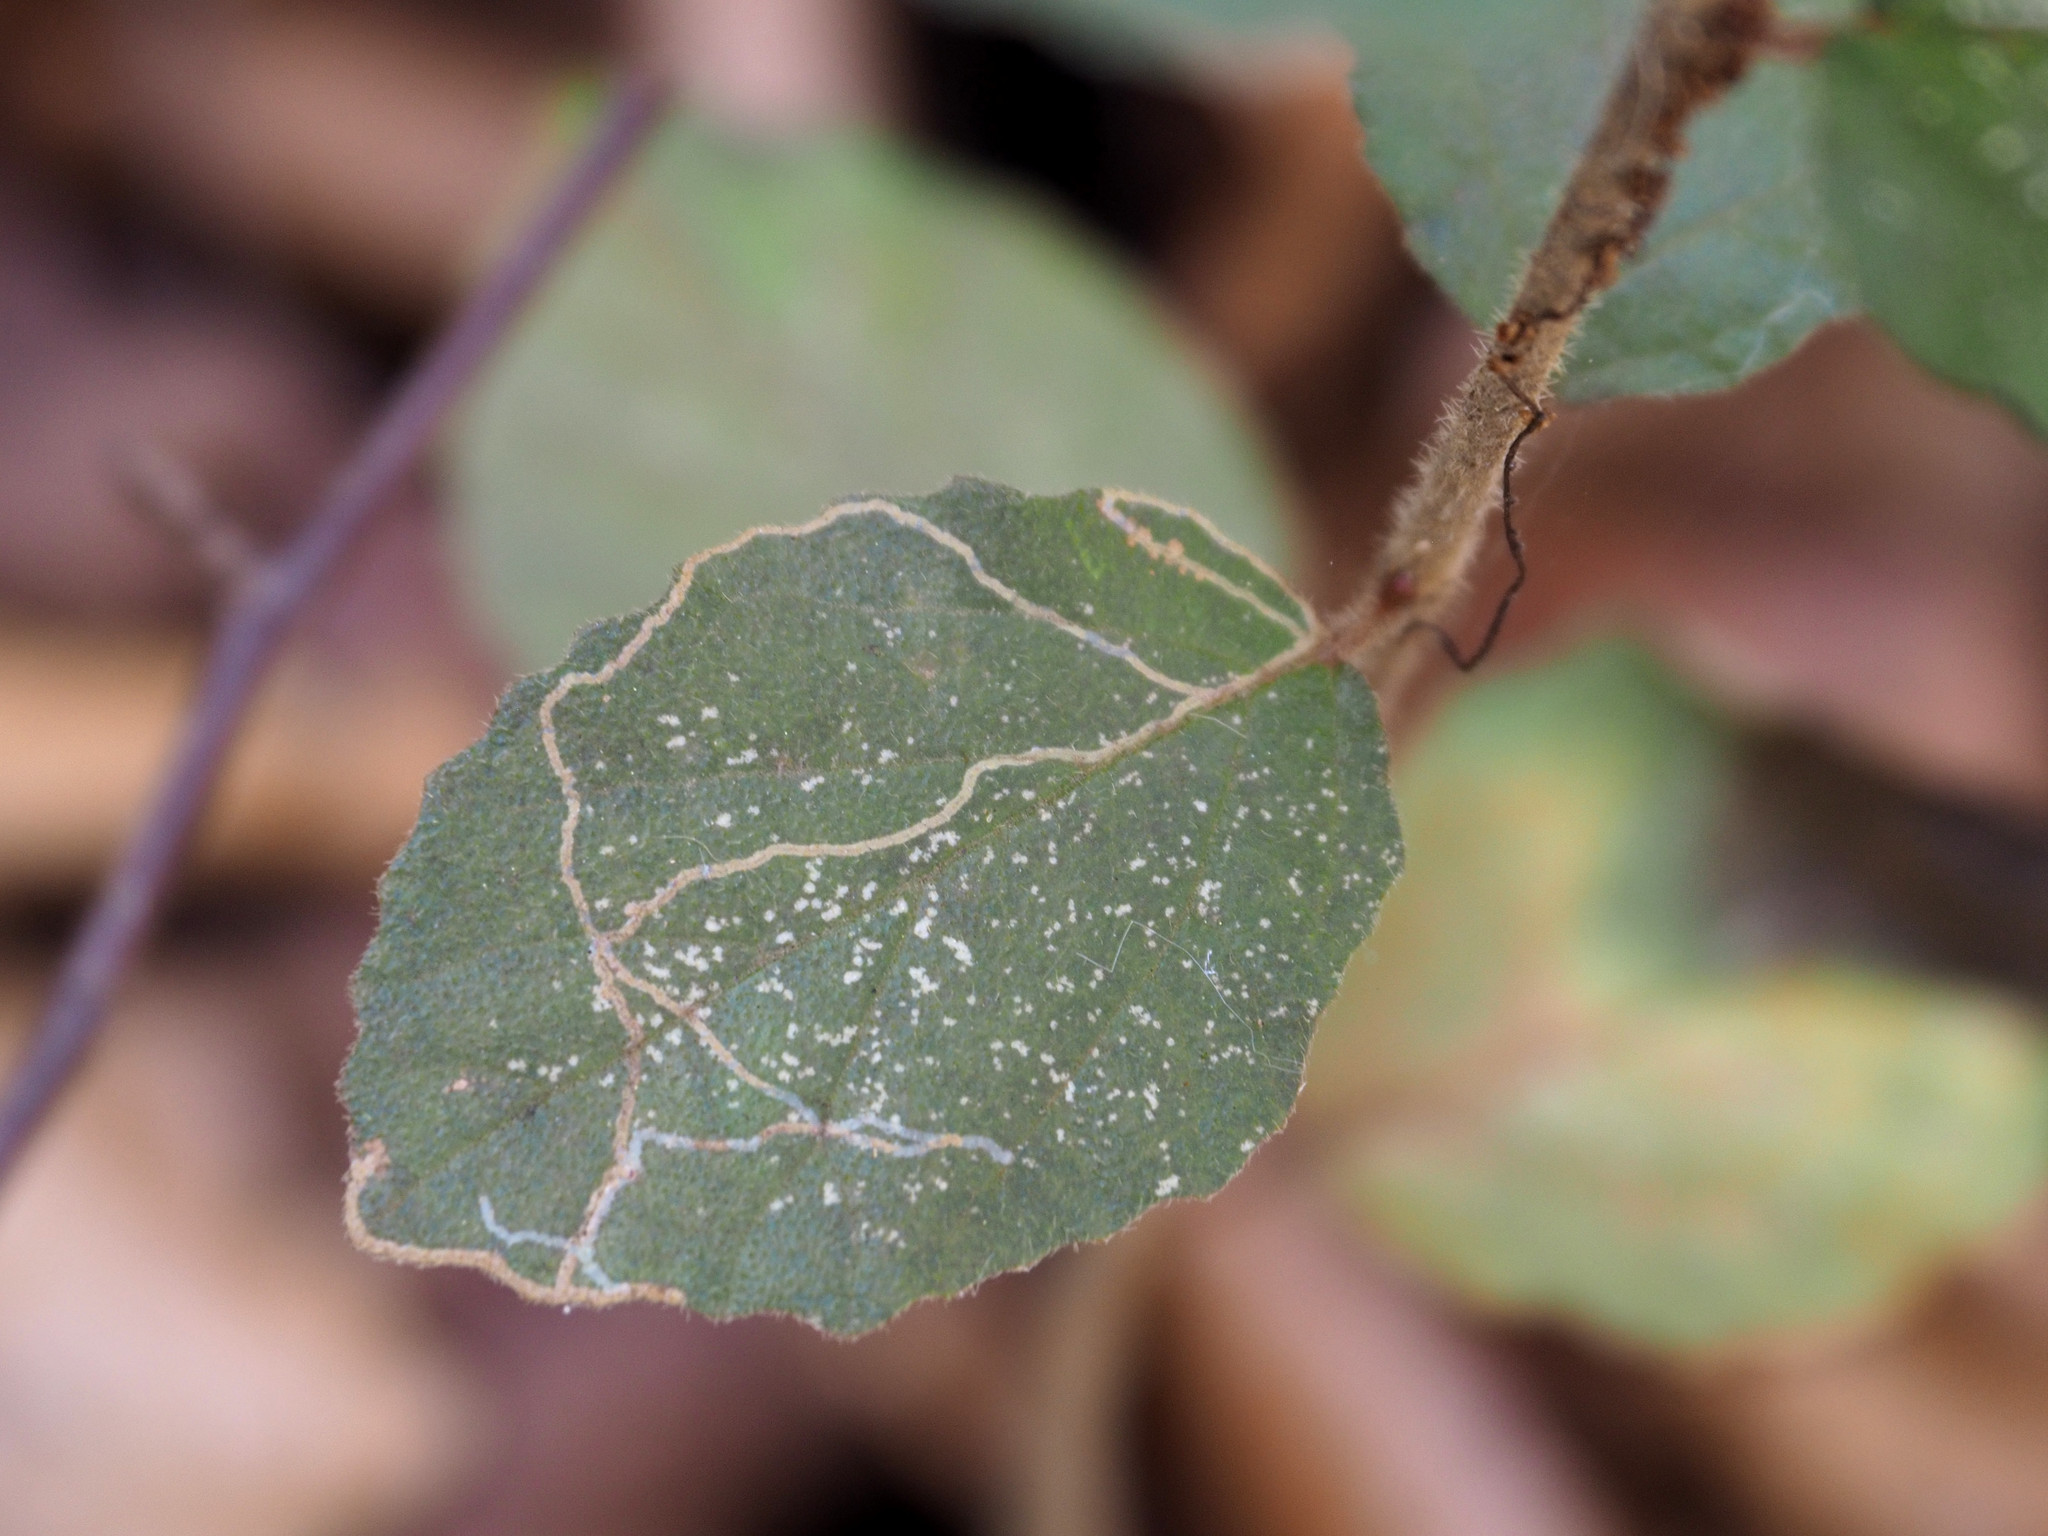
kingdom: Animalia
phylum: Arthropoda
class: Insecta
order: Lepidoptera
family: Gracillariidae
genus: Marmara
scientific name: Marmara viburnella
